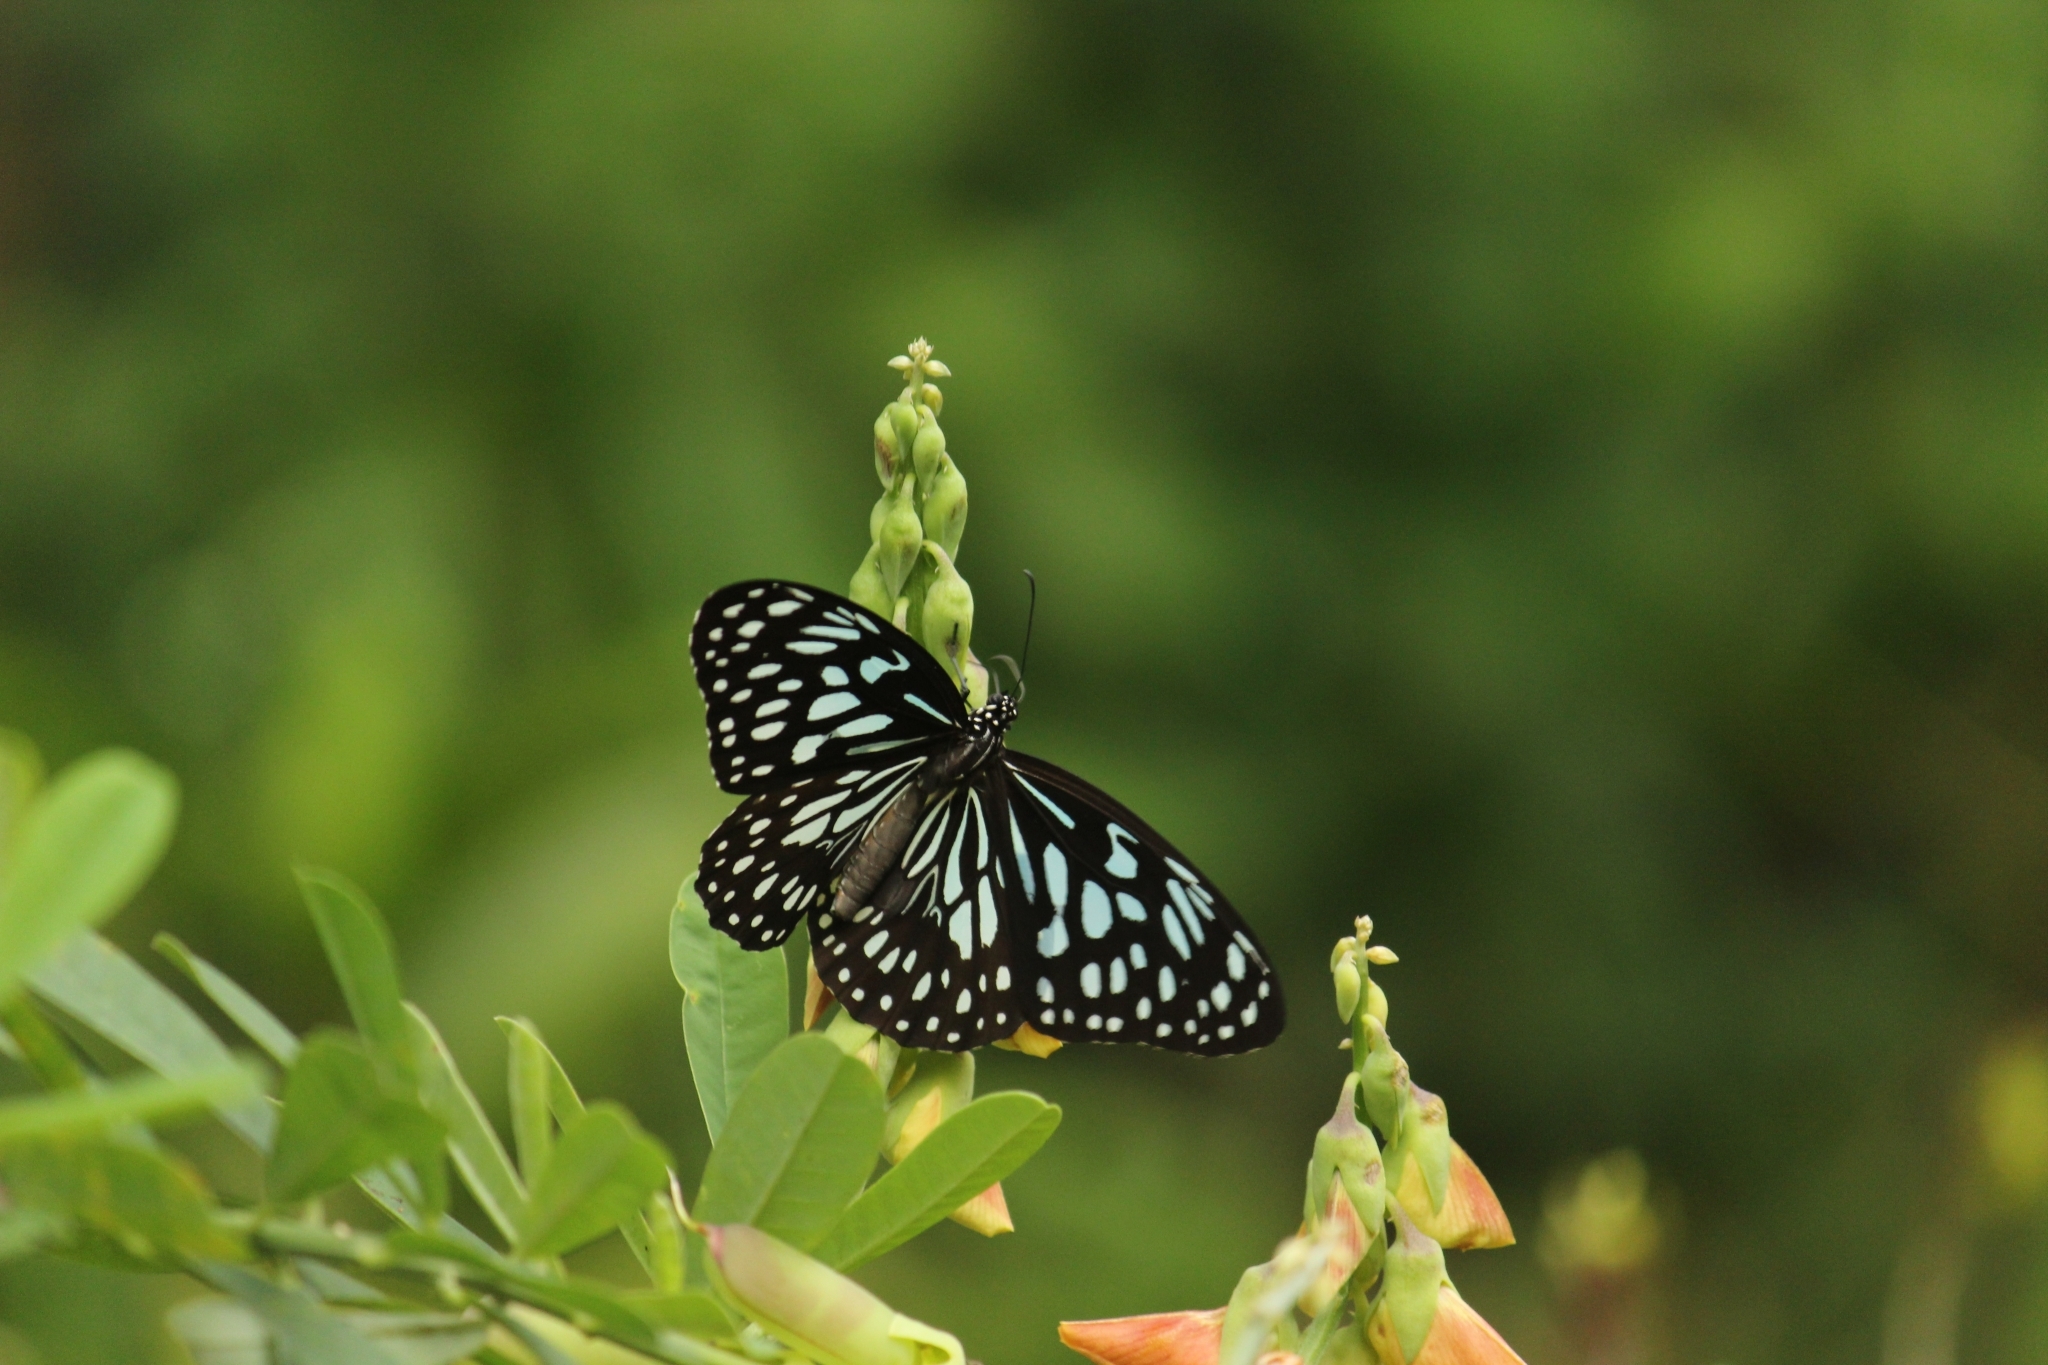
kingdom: Animalia
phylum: Arthropoda
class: Insecta
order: Lepidoptera
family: Nymphalidae
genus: Tirumala
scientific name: Tirumala septentrionis
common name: Dark blue tiger butterfly
